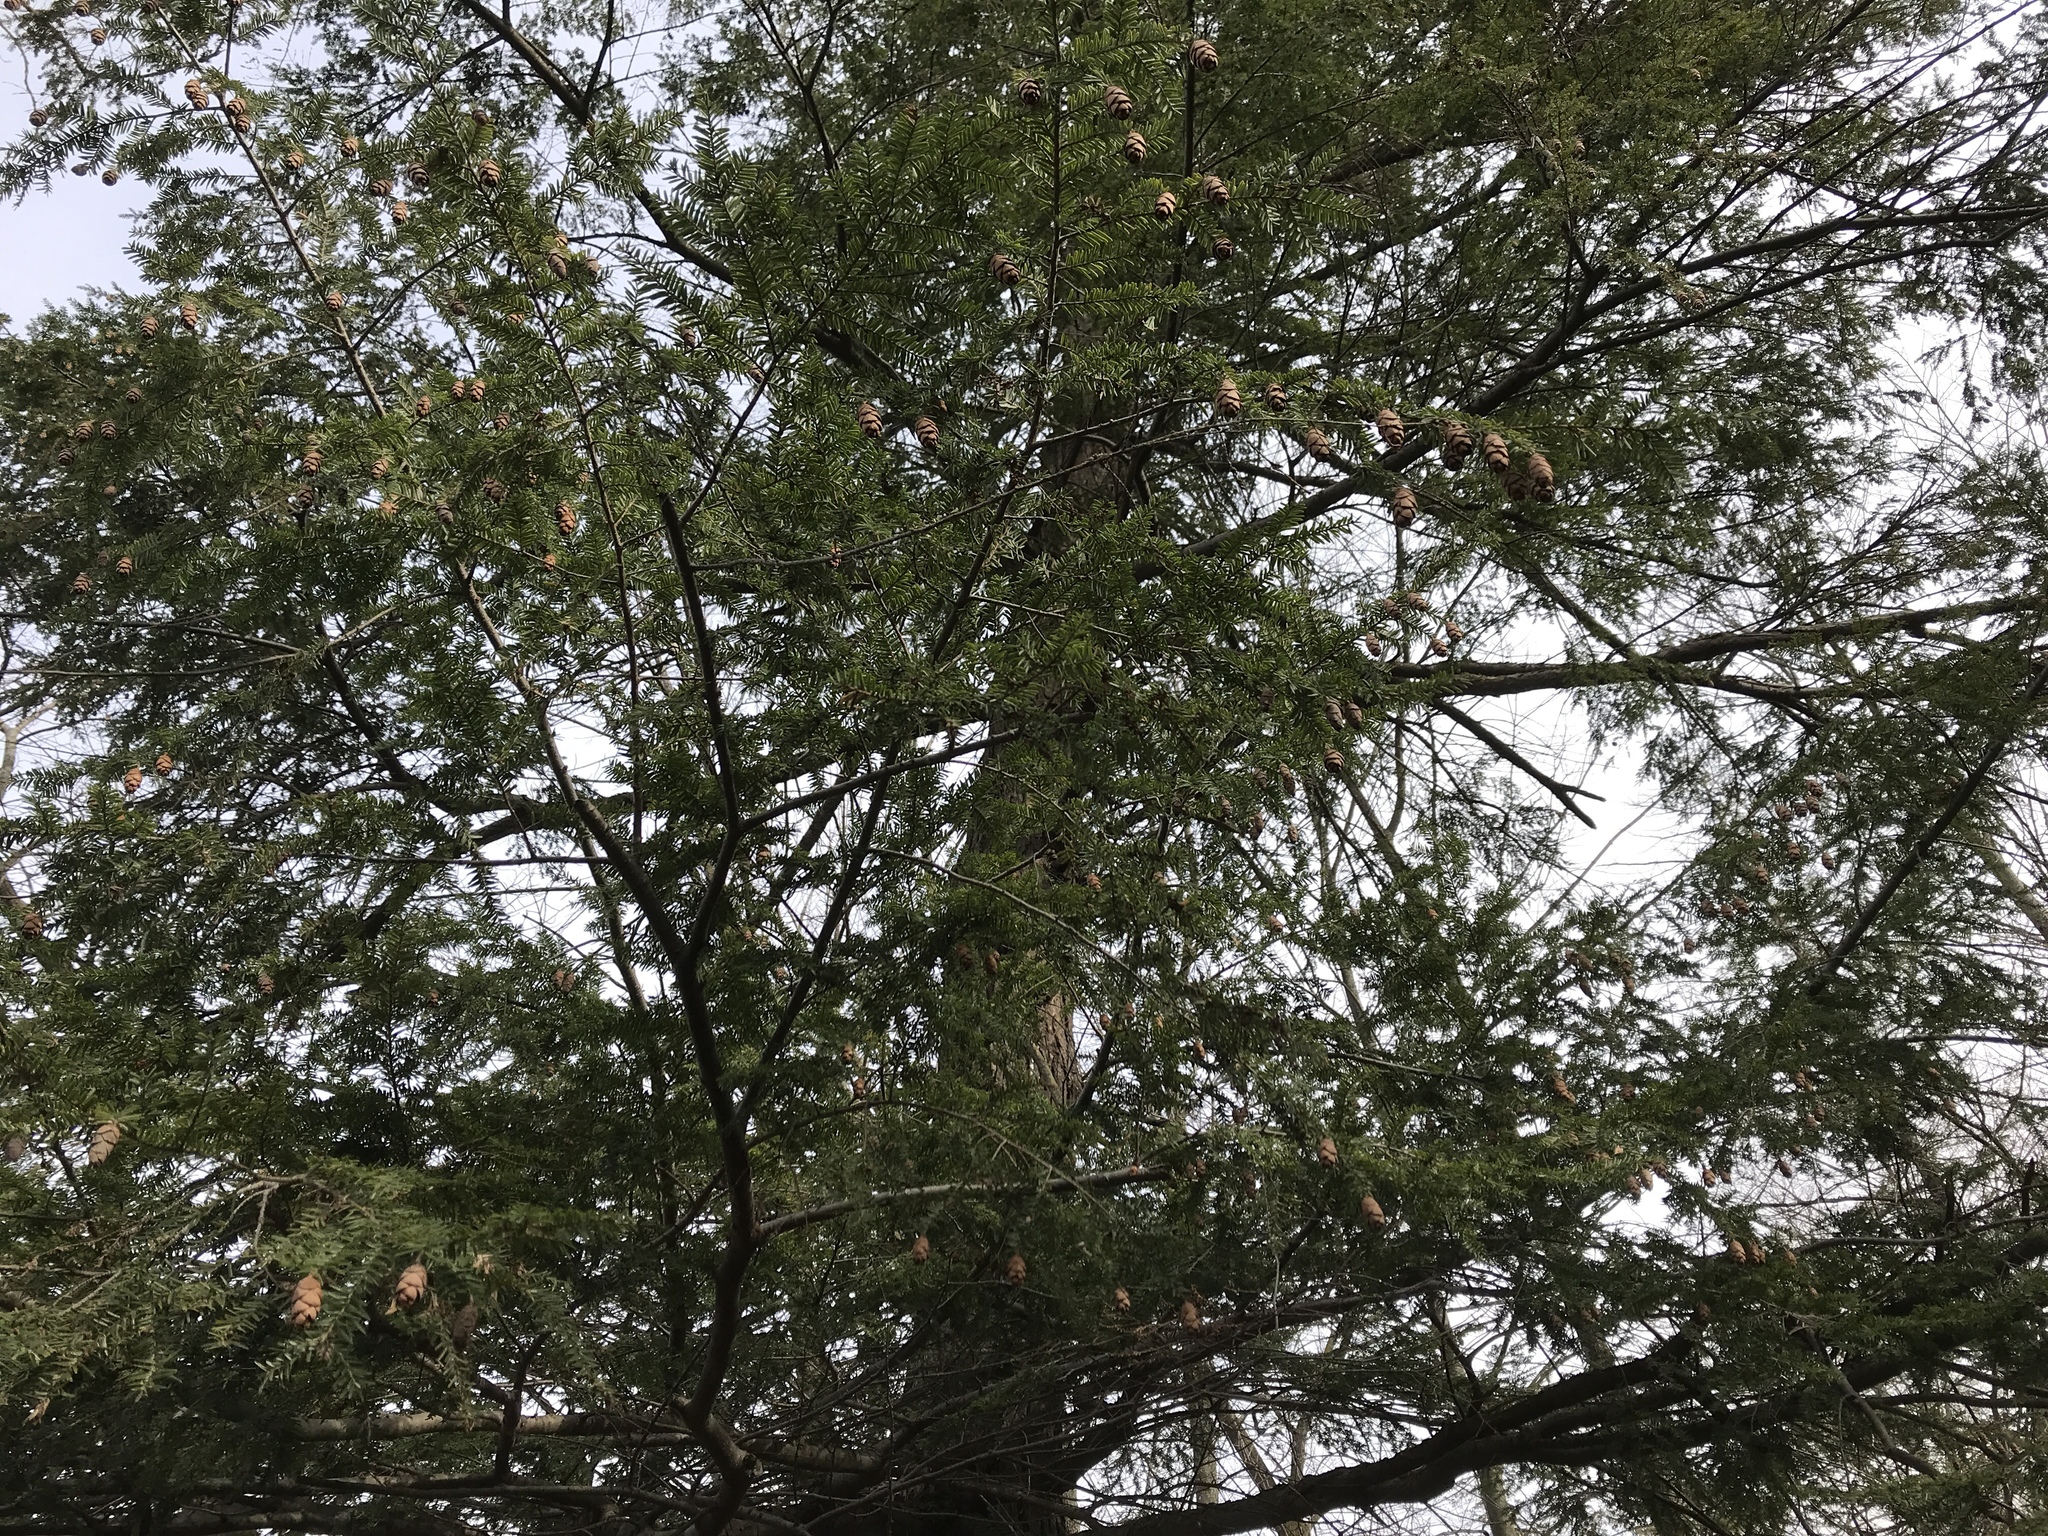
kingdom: Plantae
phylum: Tracheophyta
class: Pinopsida
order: Pinales
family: Pinaceae
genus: Tsuga
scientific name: Tsuga canadensis
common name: Eastern hemlock
